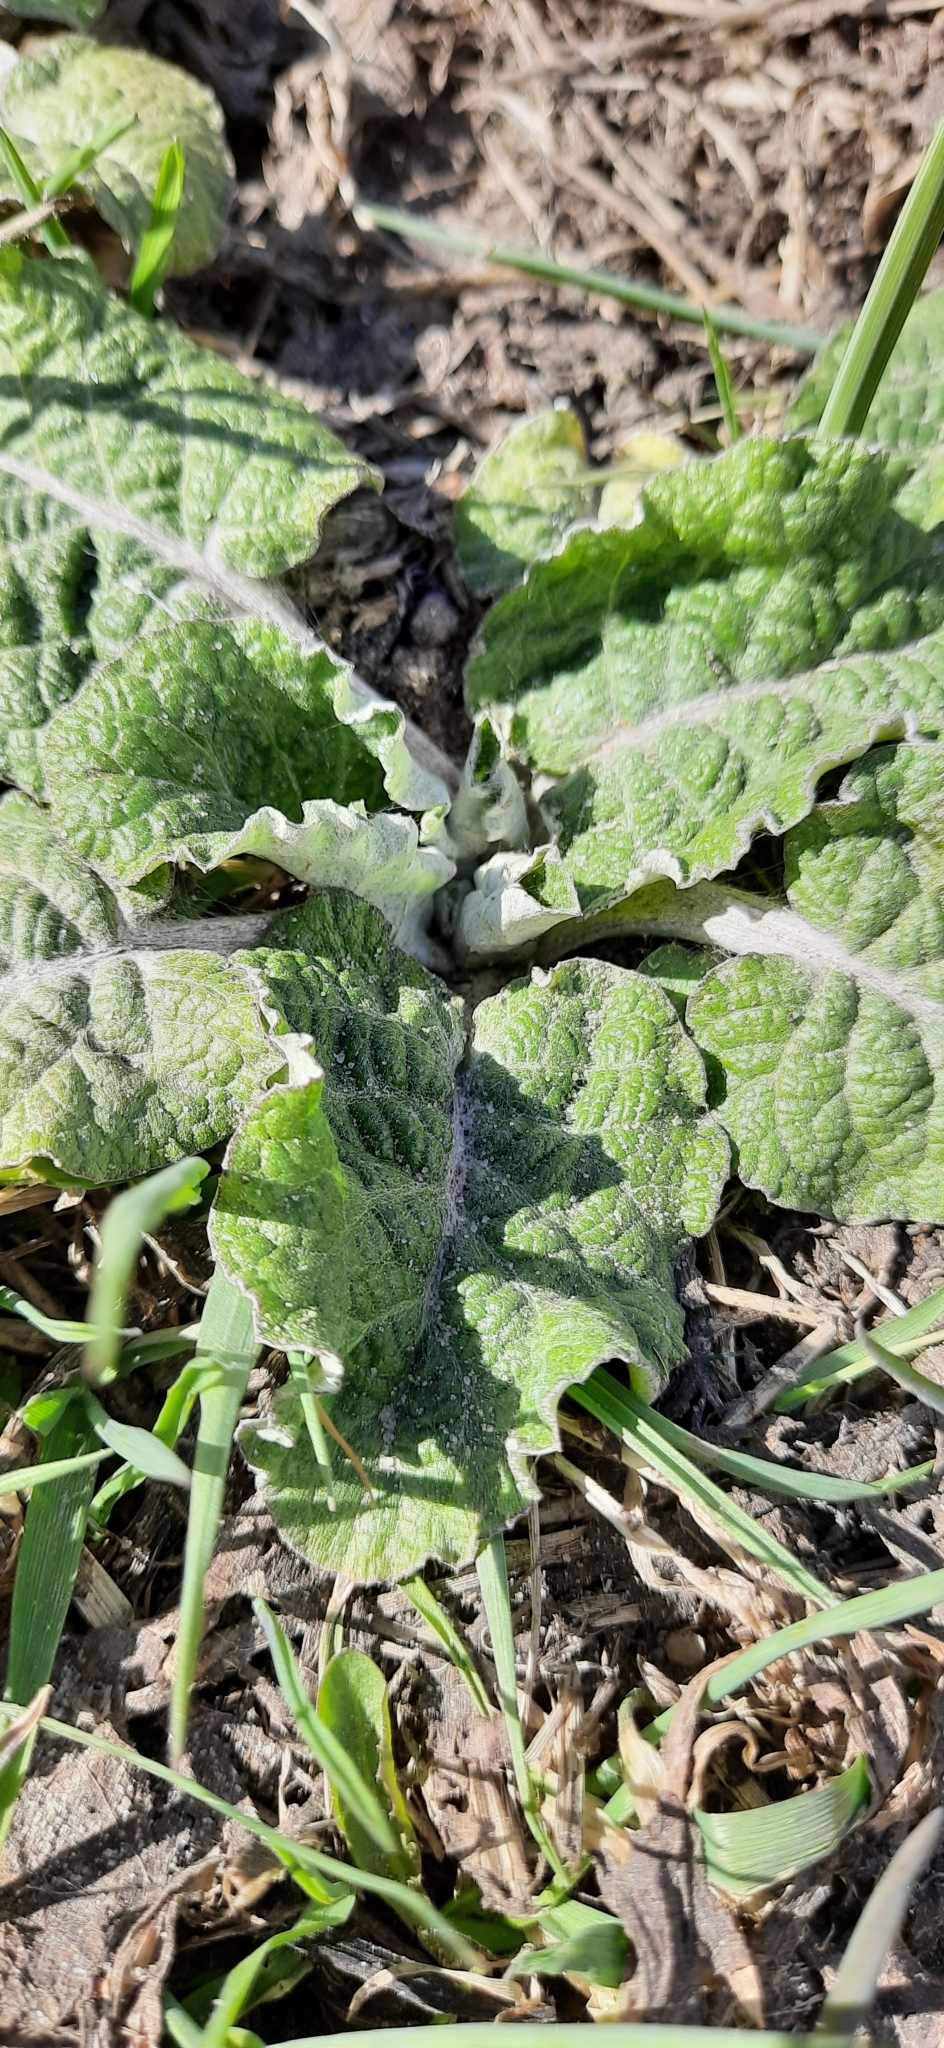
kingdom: Plantae
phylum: Tracheophyta
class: Magnoliopsida
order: Asterales
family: Asteraceae
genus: Arctium
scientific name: Arctium tomentosum
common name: Woolly burdock
